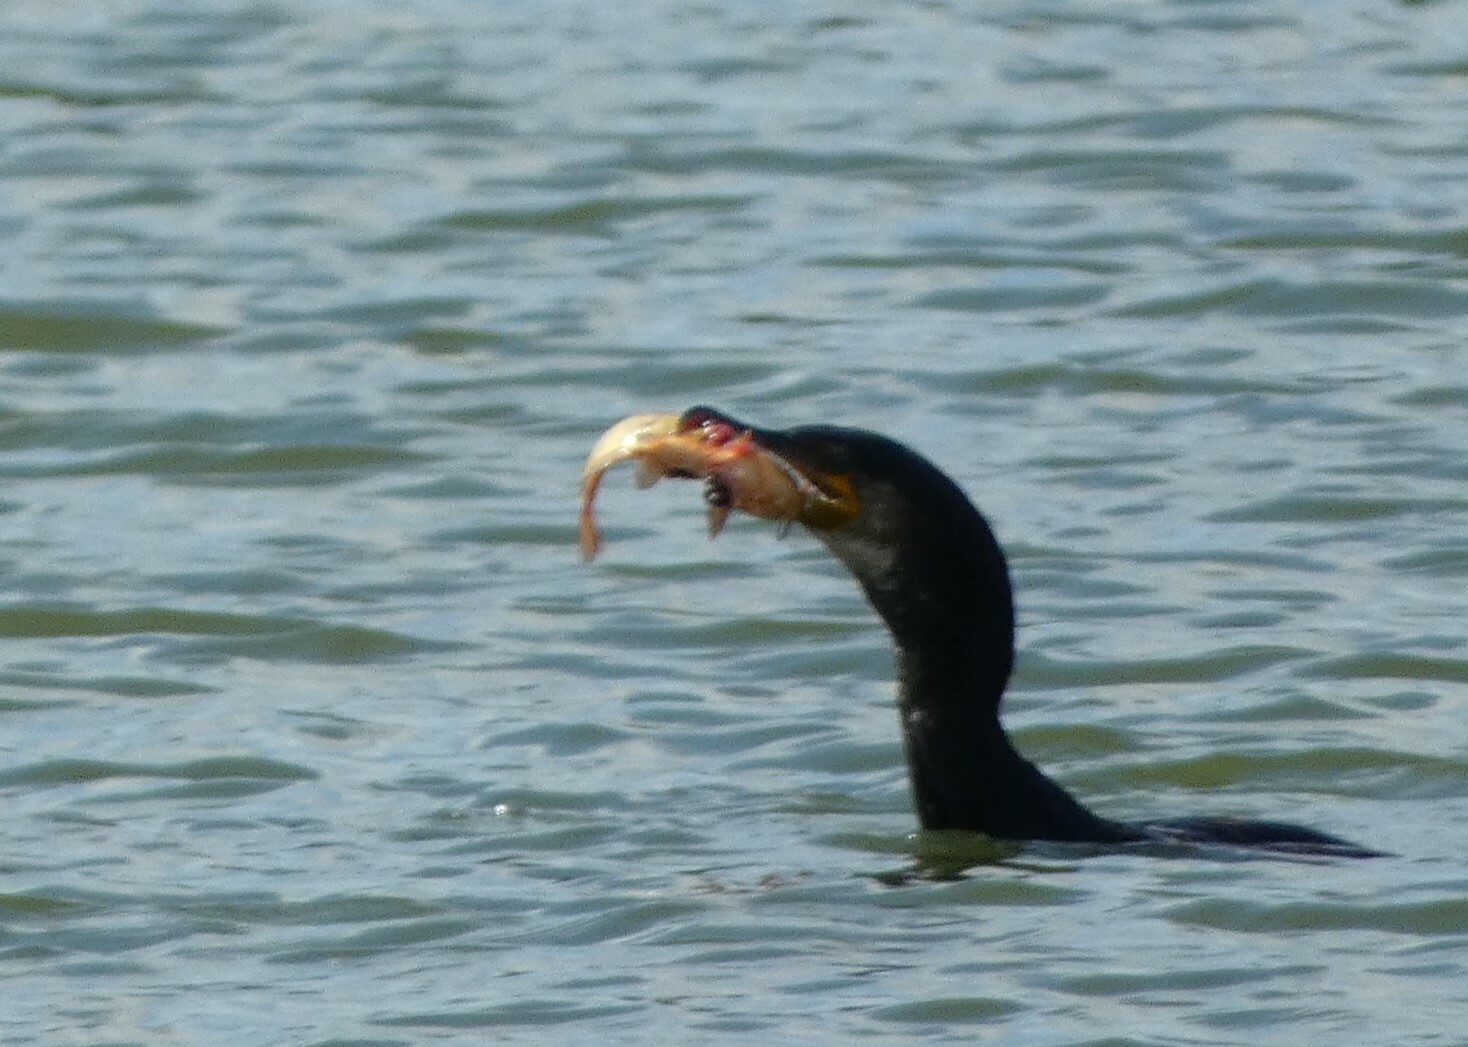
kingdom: Animalia
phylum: Chordata
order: Siluriformes
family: Ictaluridae
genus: Ameiurus
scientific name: Ameiurus melas
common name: Black bullhead
